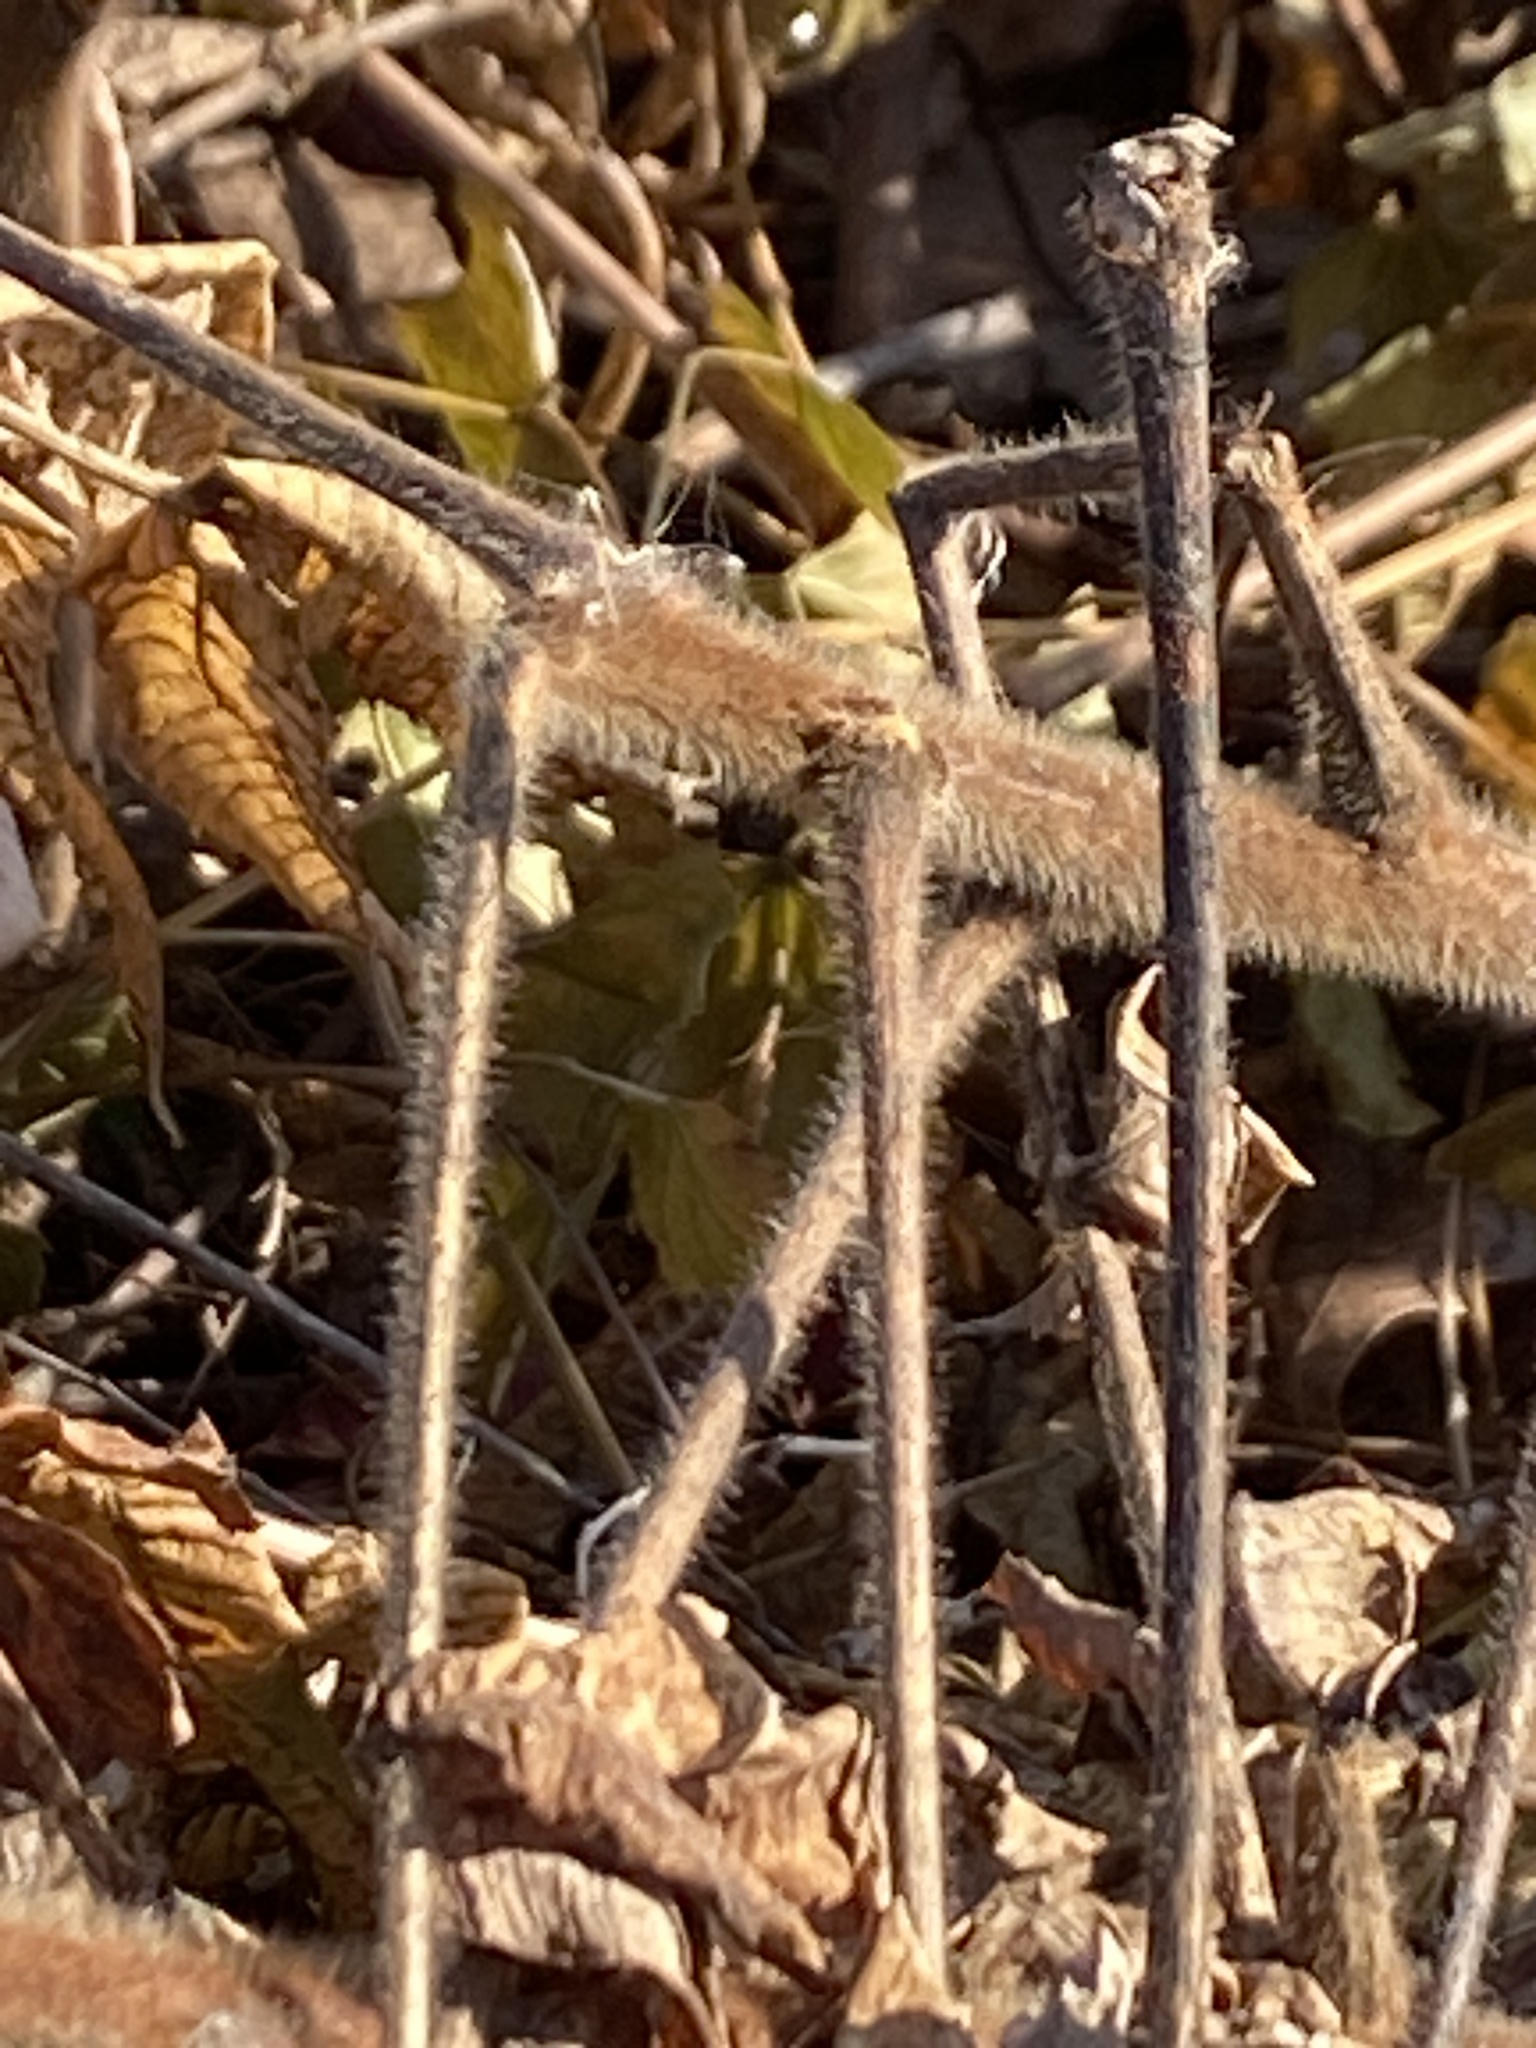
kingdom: Plantae
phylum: Tracheophyta
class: Magnoliopsida
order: Sapindales
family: Anacardiaceae
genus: Rhus
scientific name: Rhus typhina
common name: Staghorn sumac
